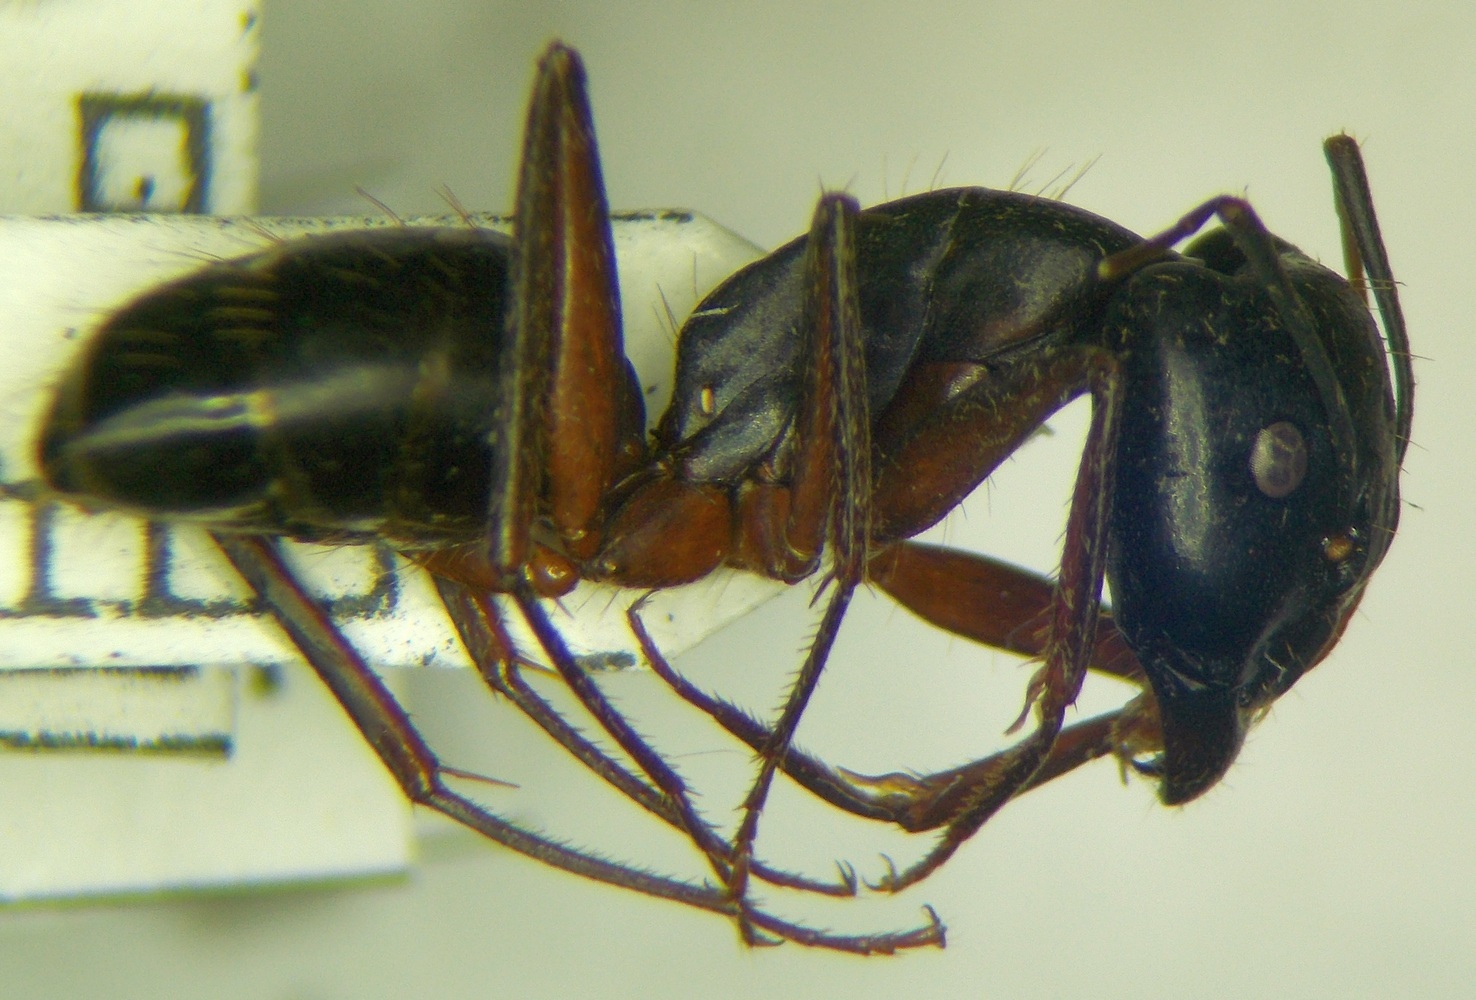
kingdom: Animalia
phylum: Arthropoda
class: Insecta
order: Hymenoptera
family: Formicidae
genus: Camponotus
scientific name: Camponotus sanctus
